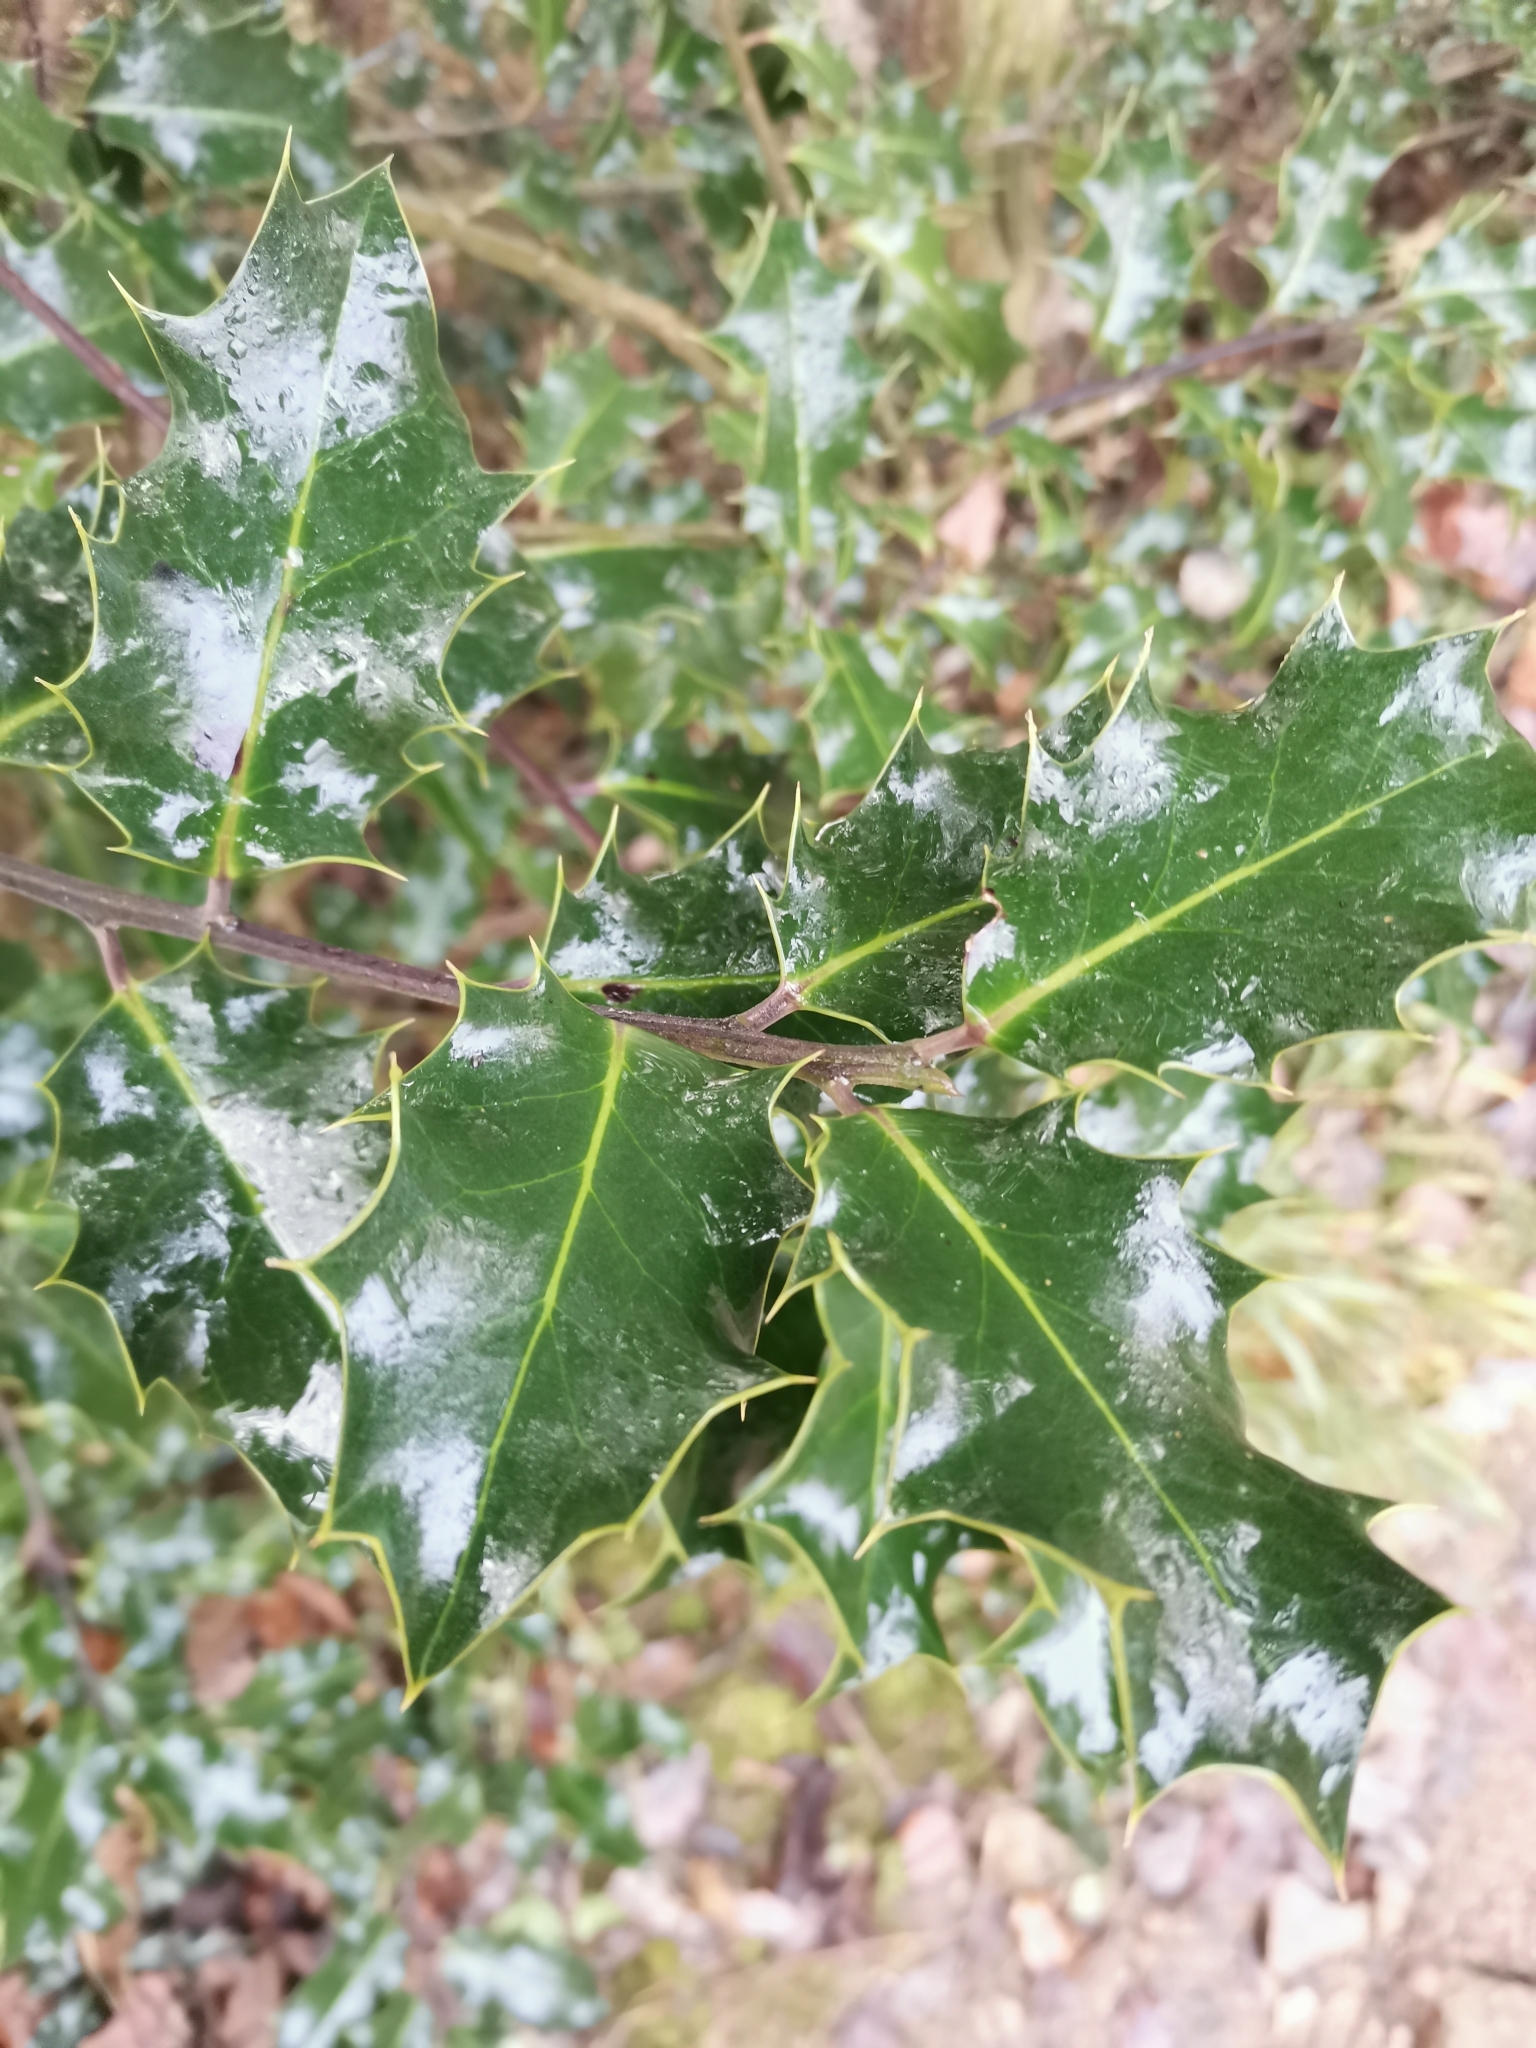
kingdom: Plantae
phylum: Tracheophyta
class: Magnoliopsida
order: Aquifoliales
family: Aquifoliaceae
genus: Ilex
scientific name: Ilex aquifolium
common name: English holly
